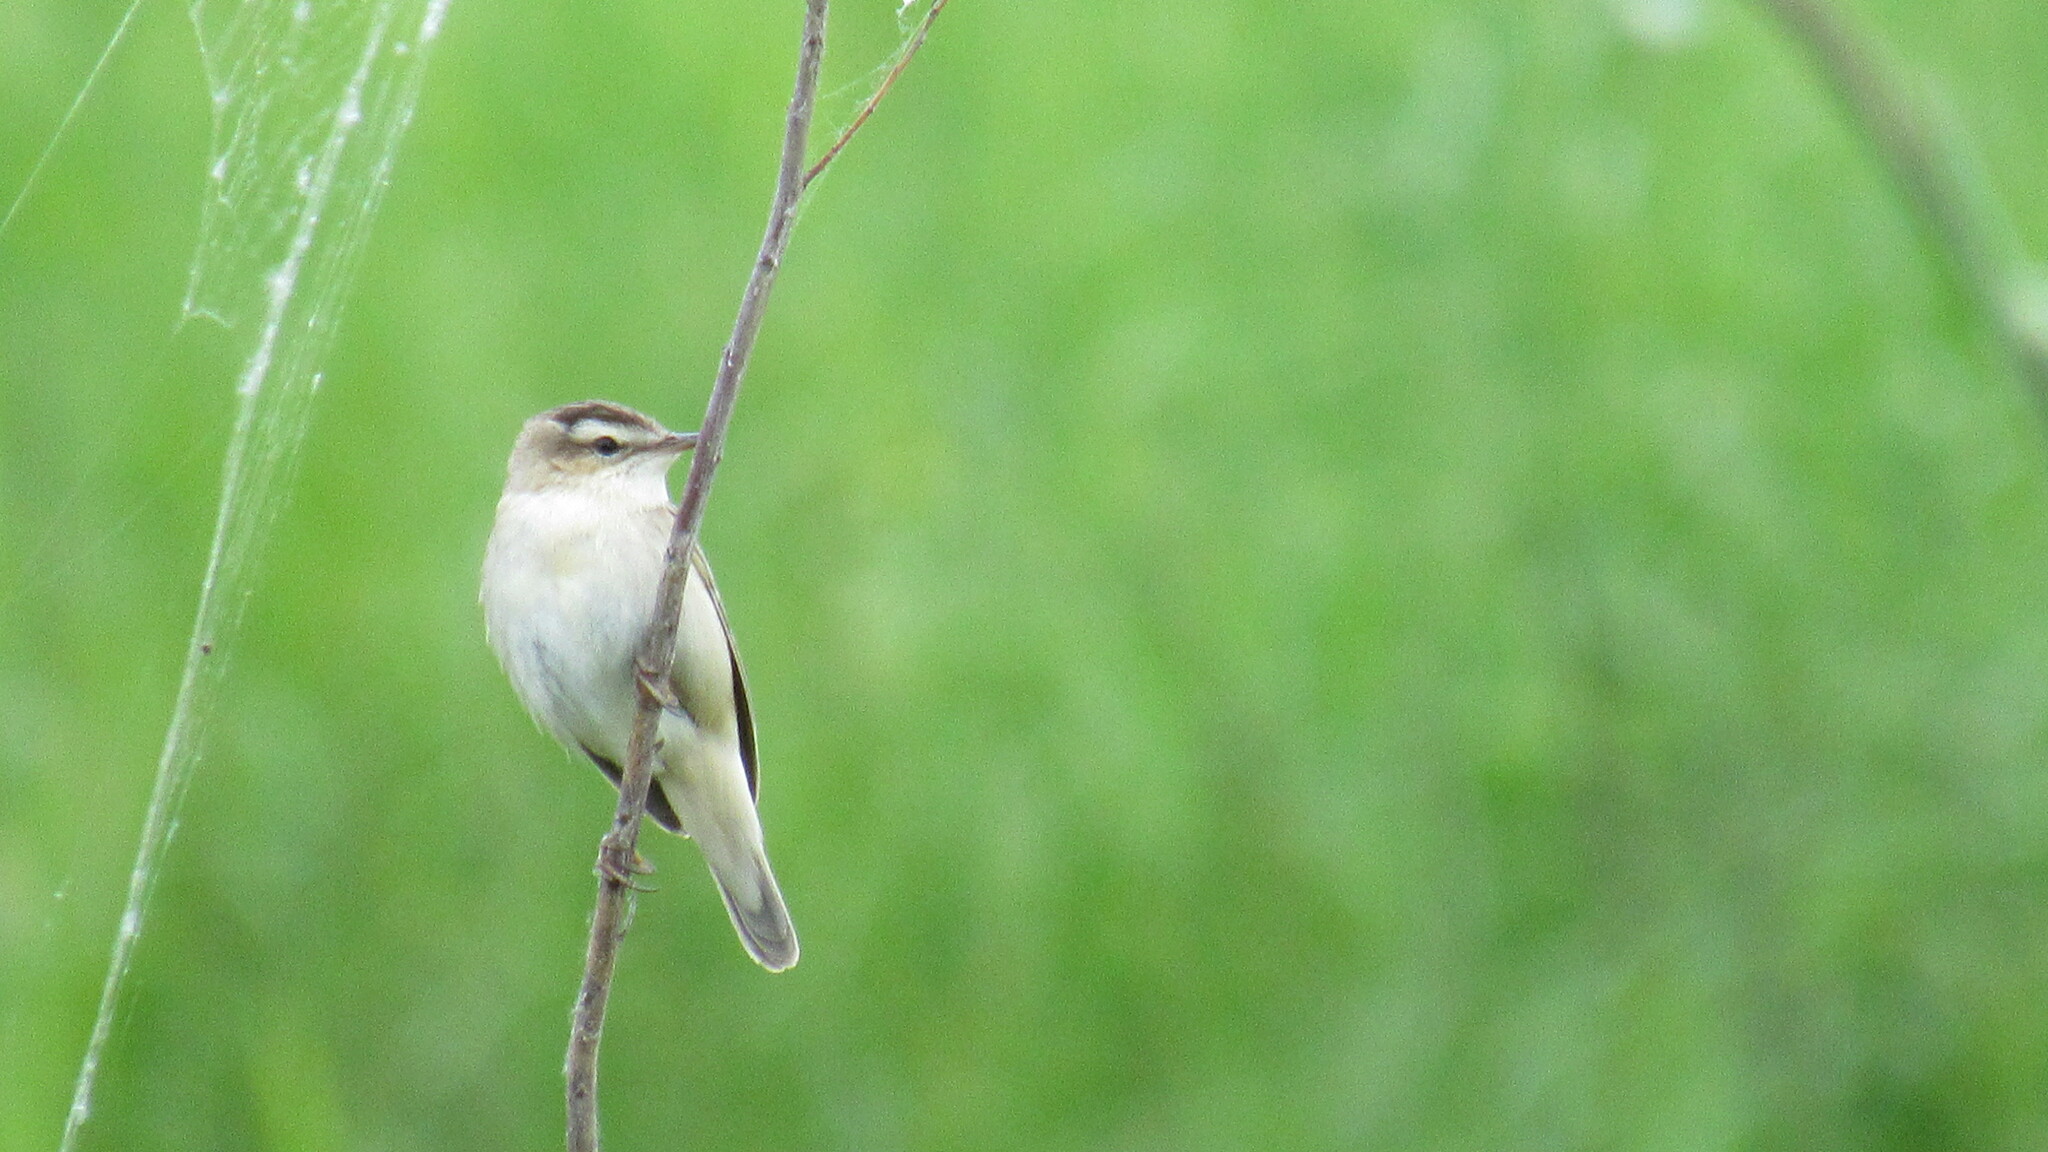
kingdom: Animalia
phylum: Chordata
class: Aves
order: Passeriformes
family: Acrocephalidae
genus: Acrocephalus
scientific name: Acrocephalus schoenobaenus
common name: Sedge warbler
